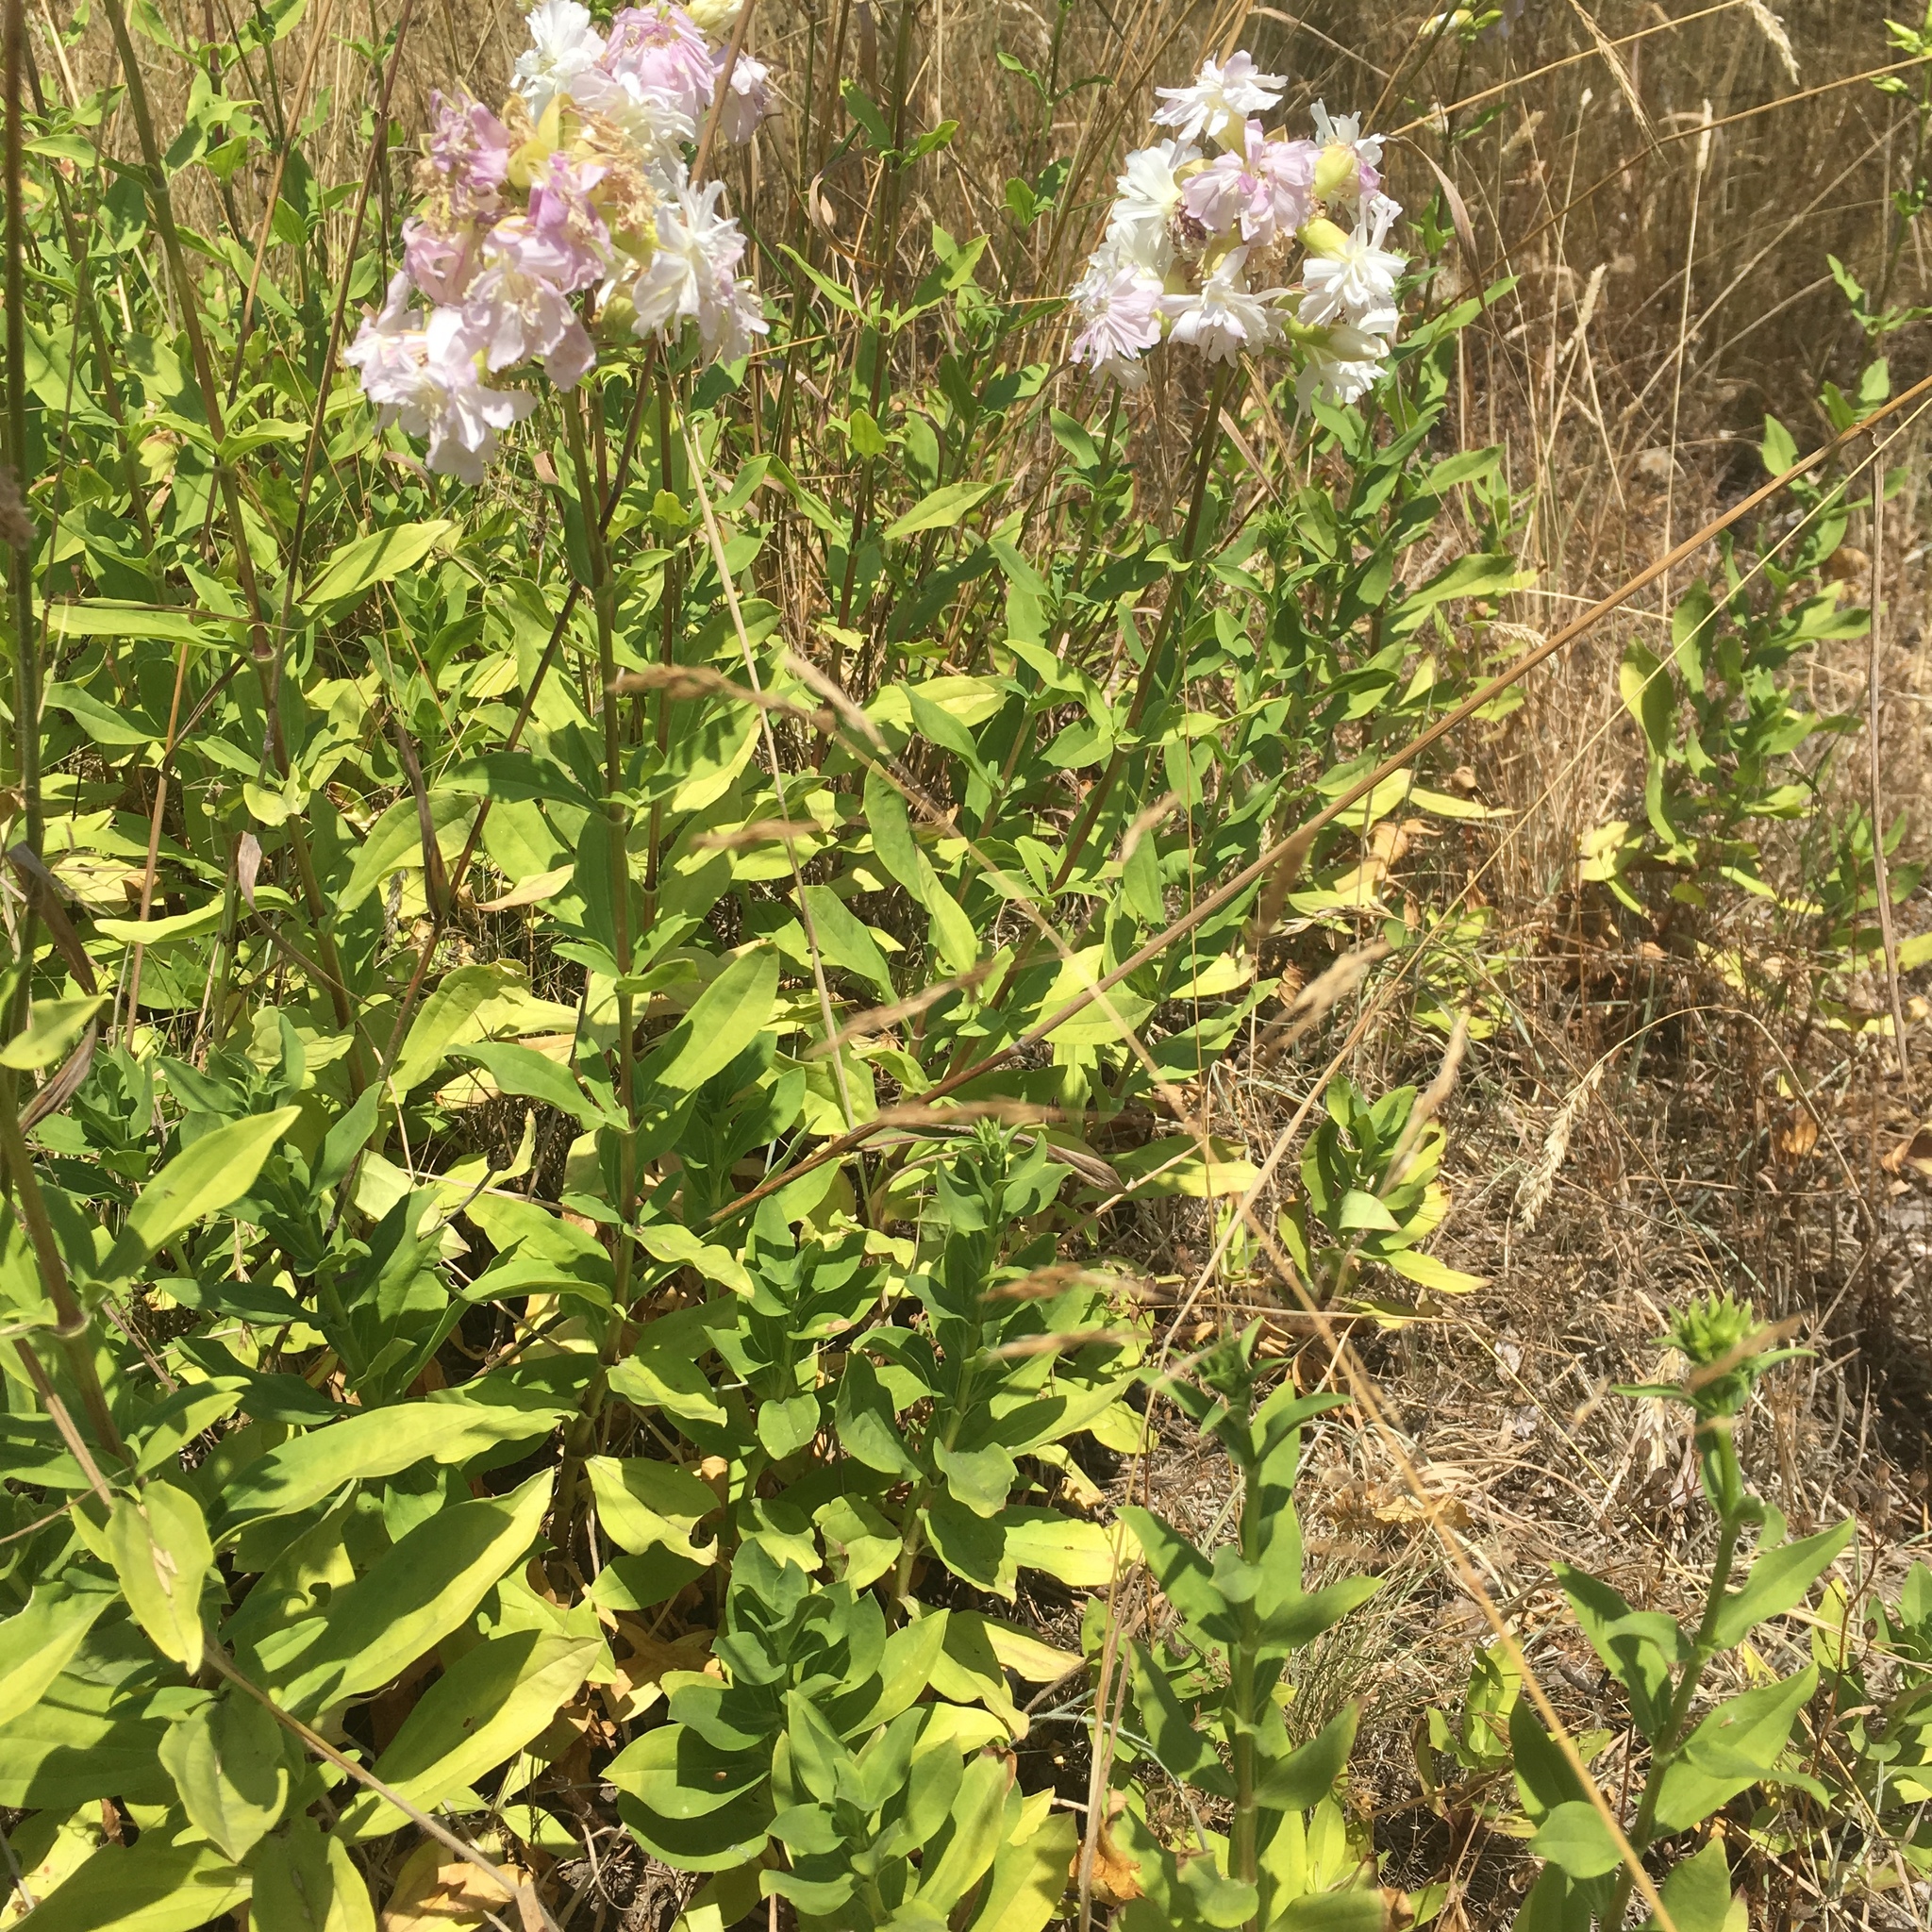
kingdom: Plantae
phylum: Tracheophyta
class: Magnoliopsida
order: Caryophyllales
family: Caryophyllaceae
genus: Saponaria
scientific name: Saponaria officinalis
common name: Soapwort
